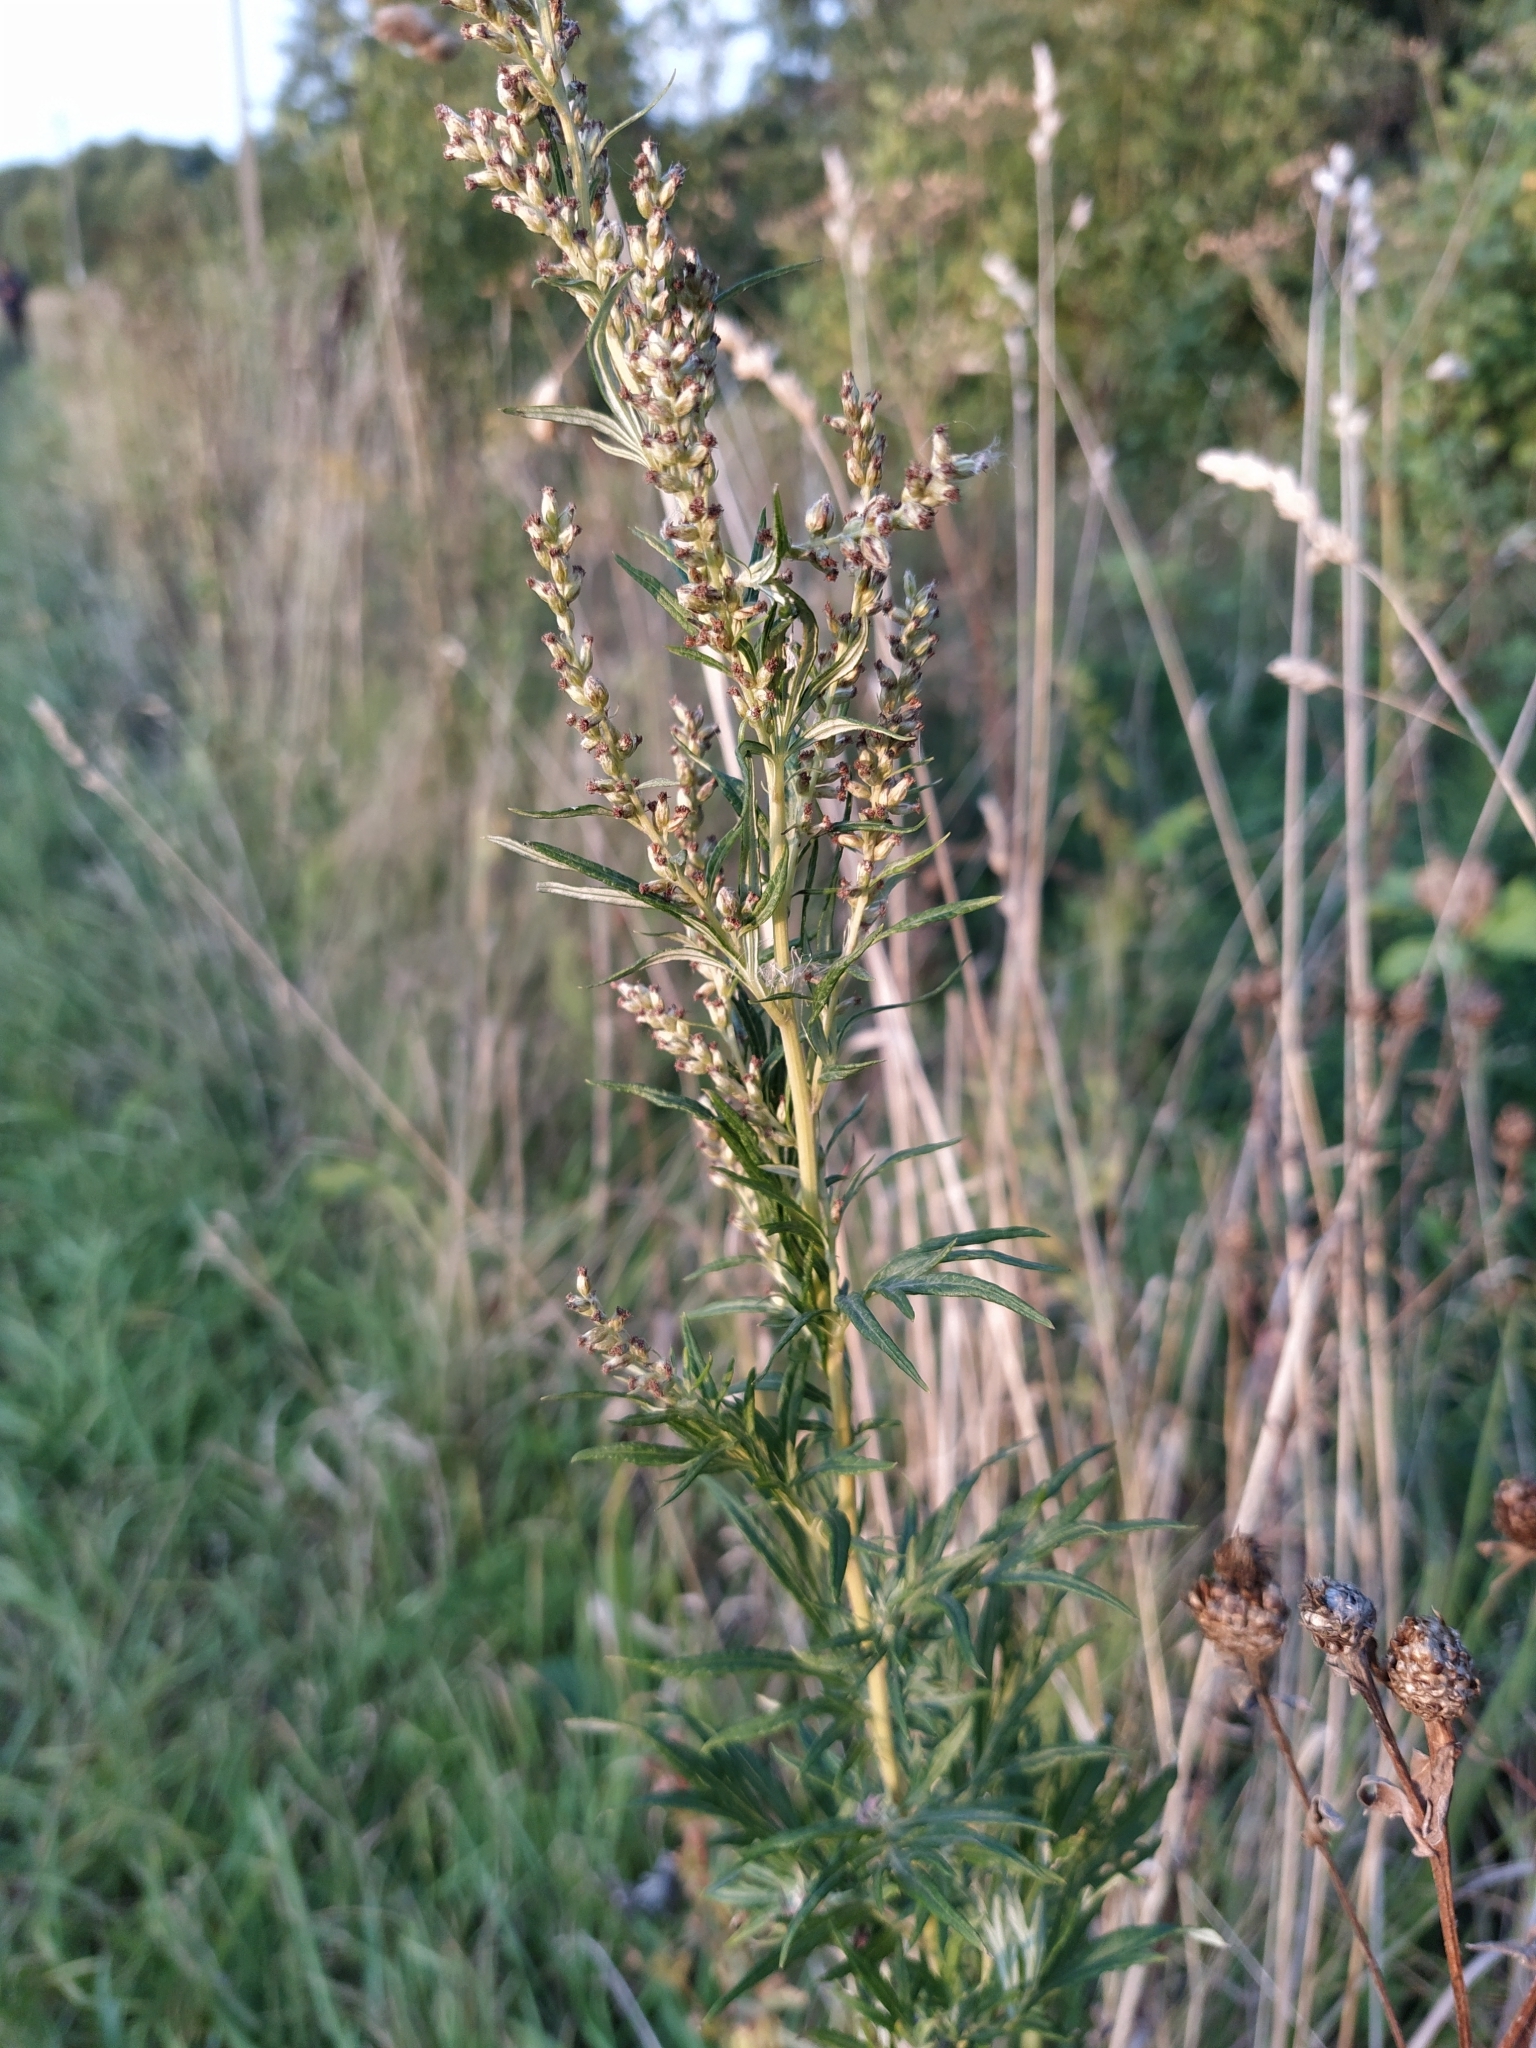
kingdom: Plantae
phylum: Tracheophyta
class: Magnoliopsida
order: Asterales
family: Asteraceae
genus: Artemisia
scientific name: Artemisia vulgaris
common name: Mugwort
